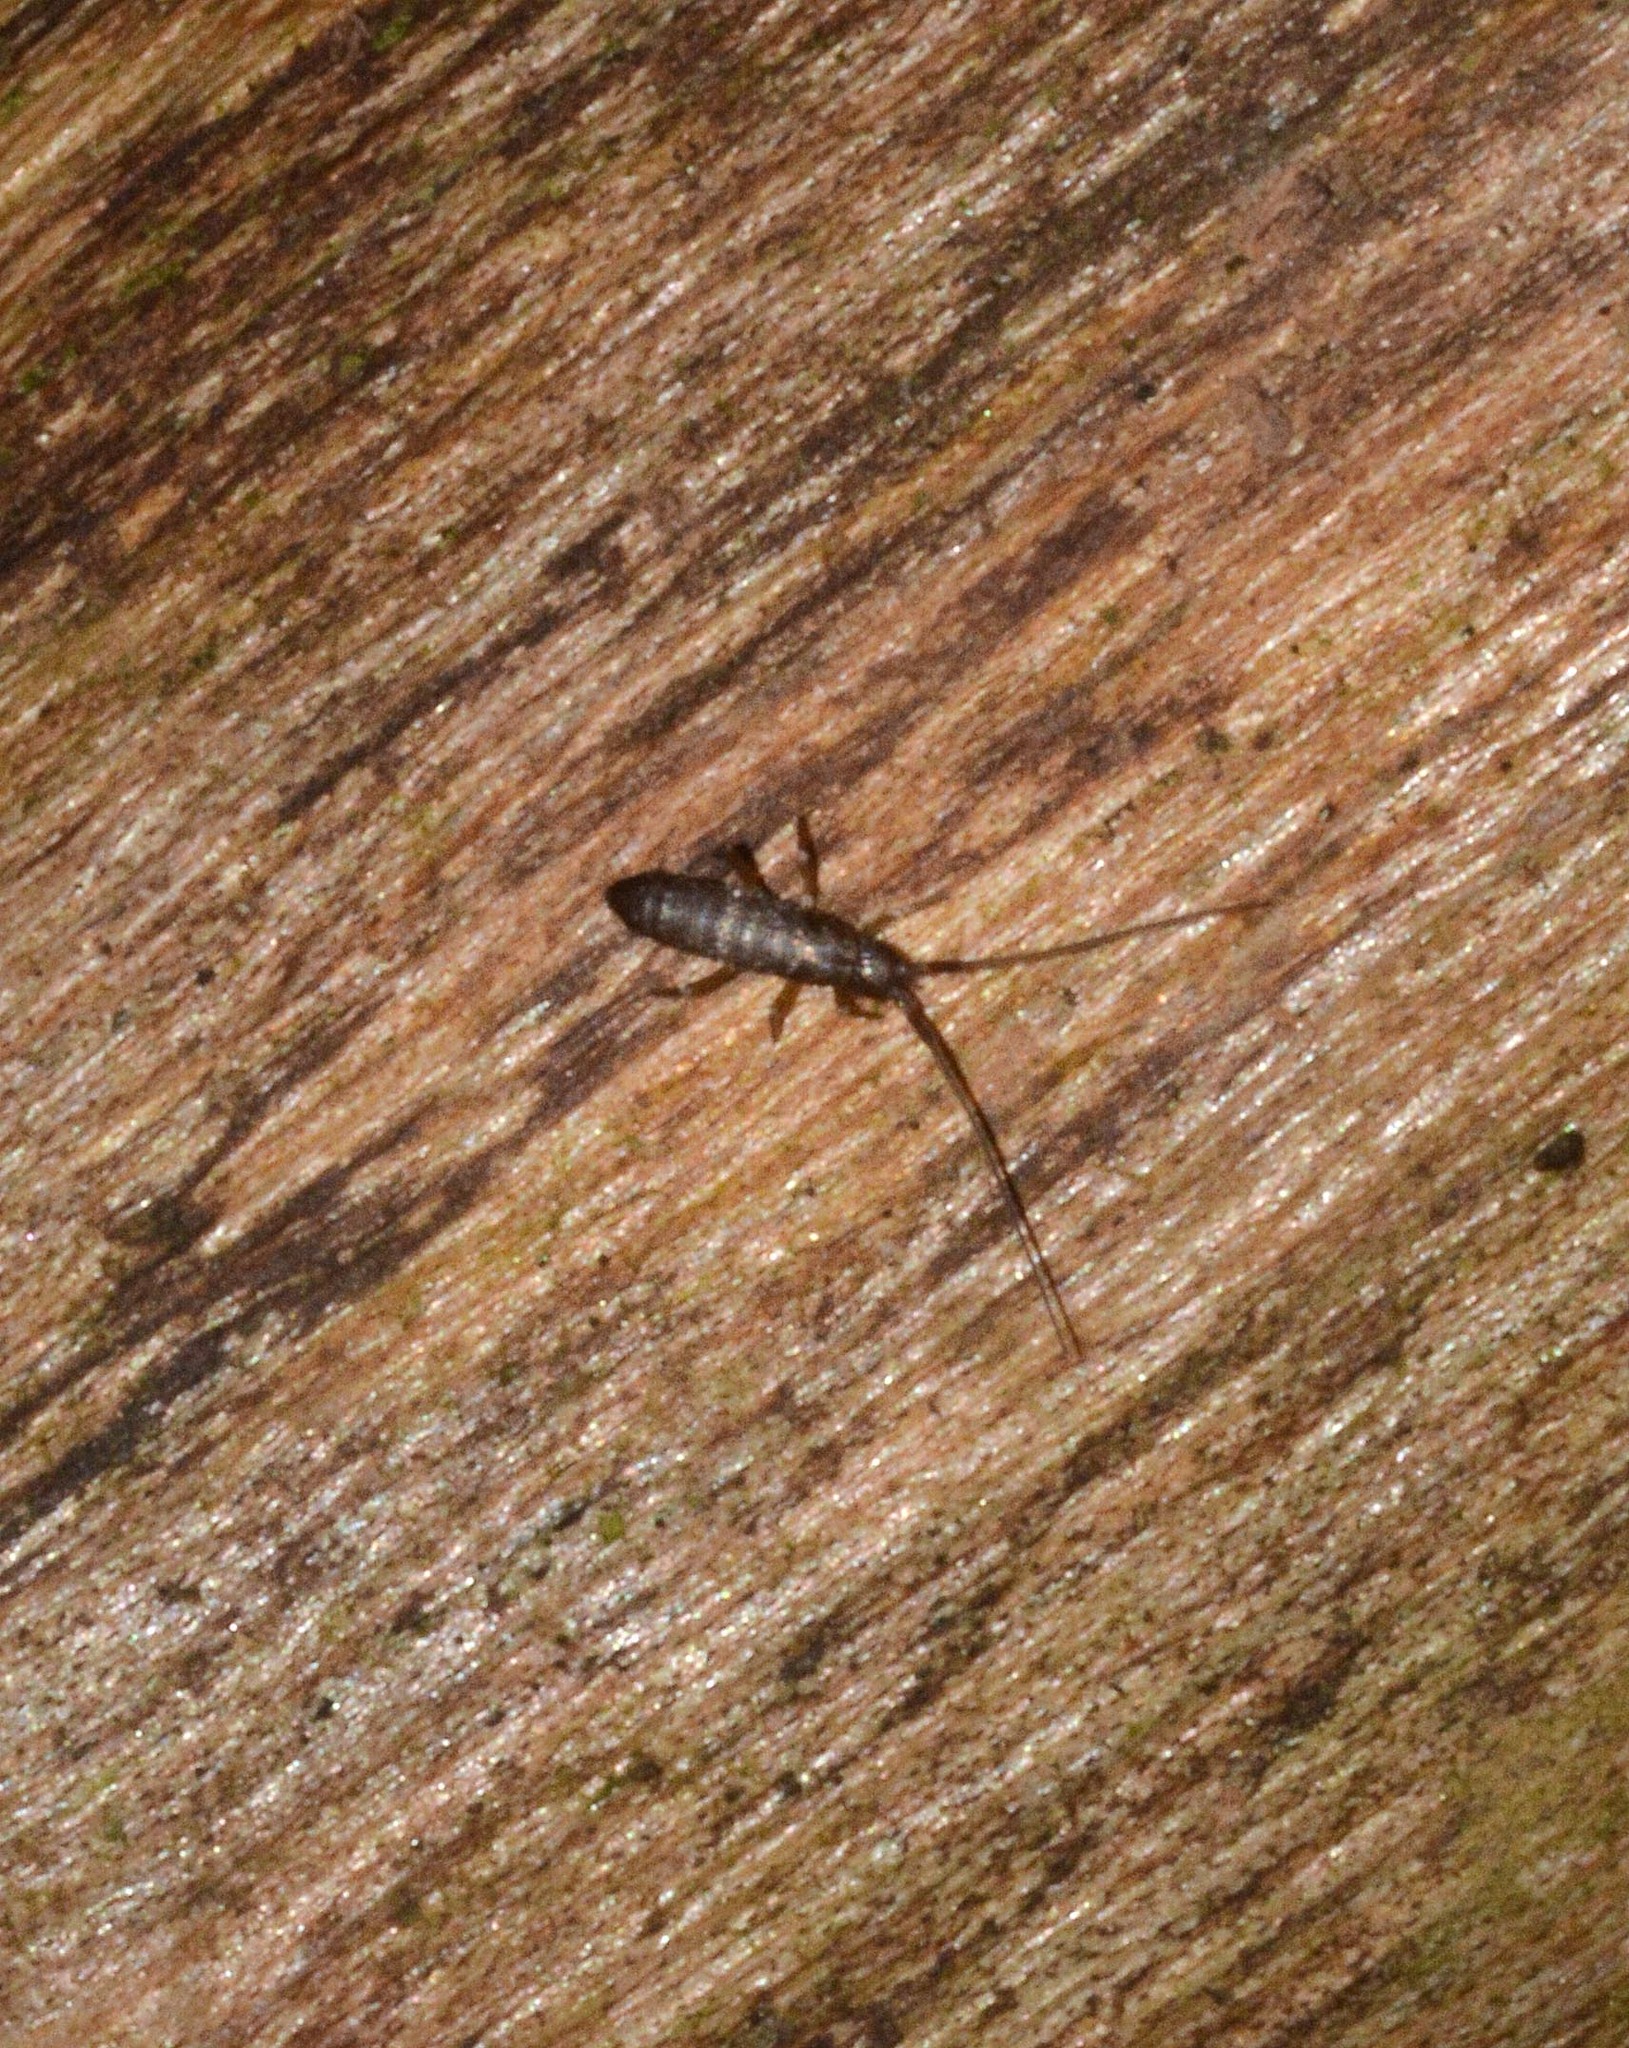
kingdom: Animalia
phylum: Arthropoda
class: Collembola
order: Entomobryomorpha
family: Tomoceridae
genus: Pogonognathellus
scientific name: Pogonognathellus longicornis
